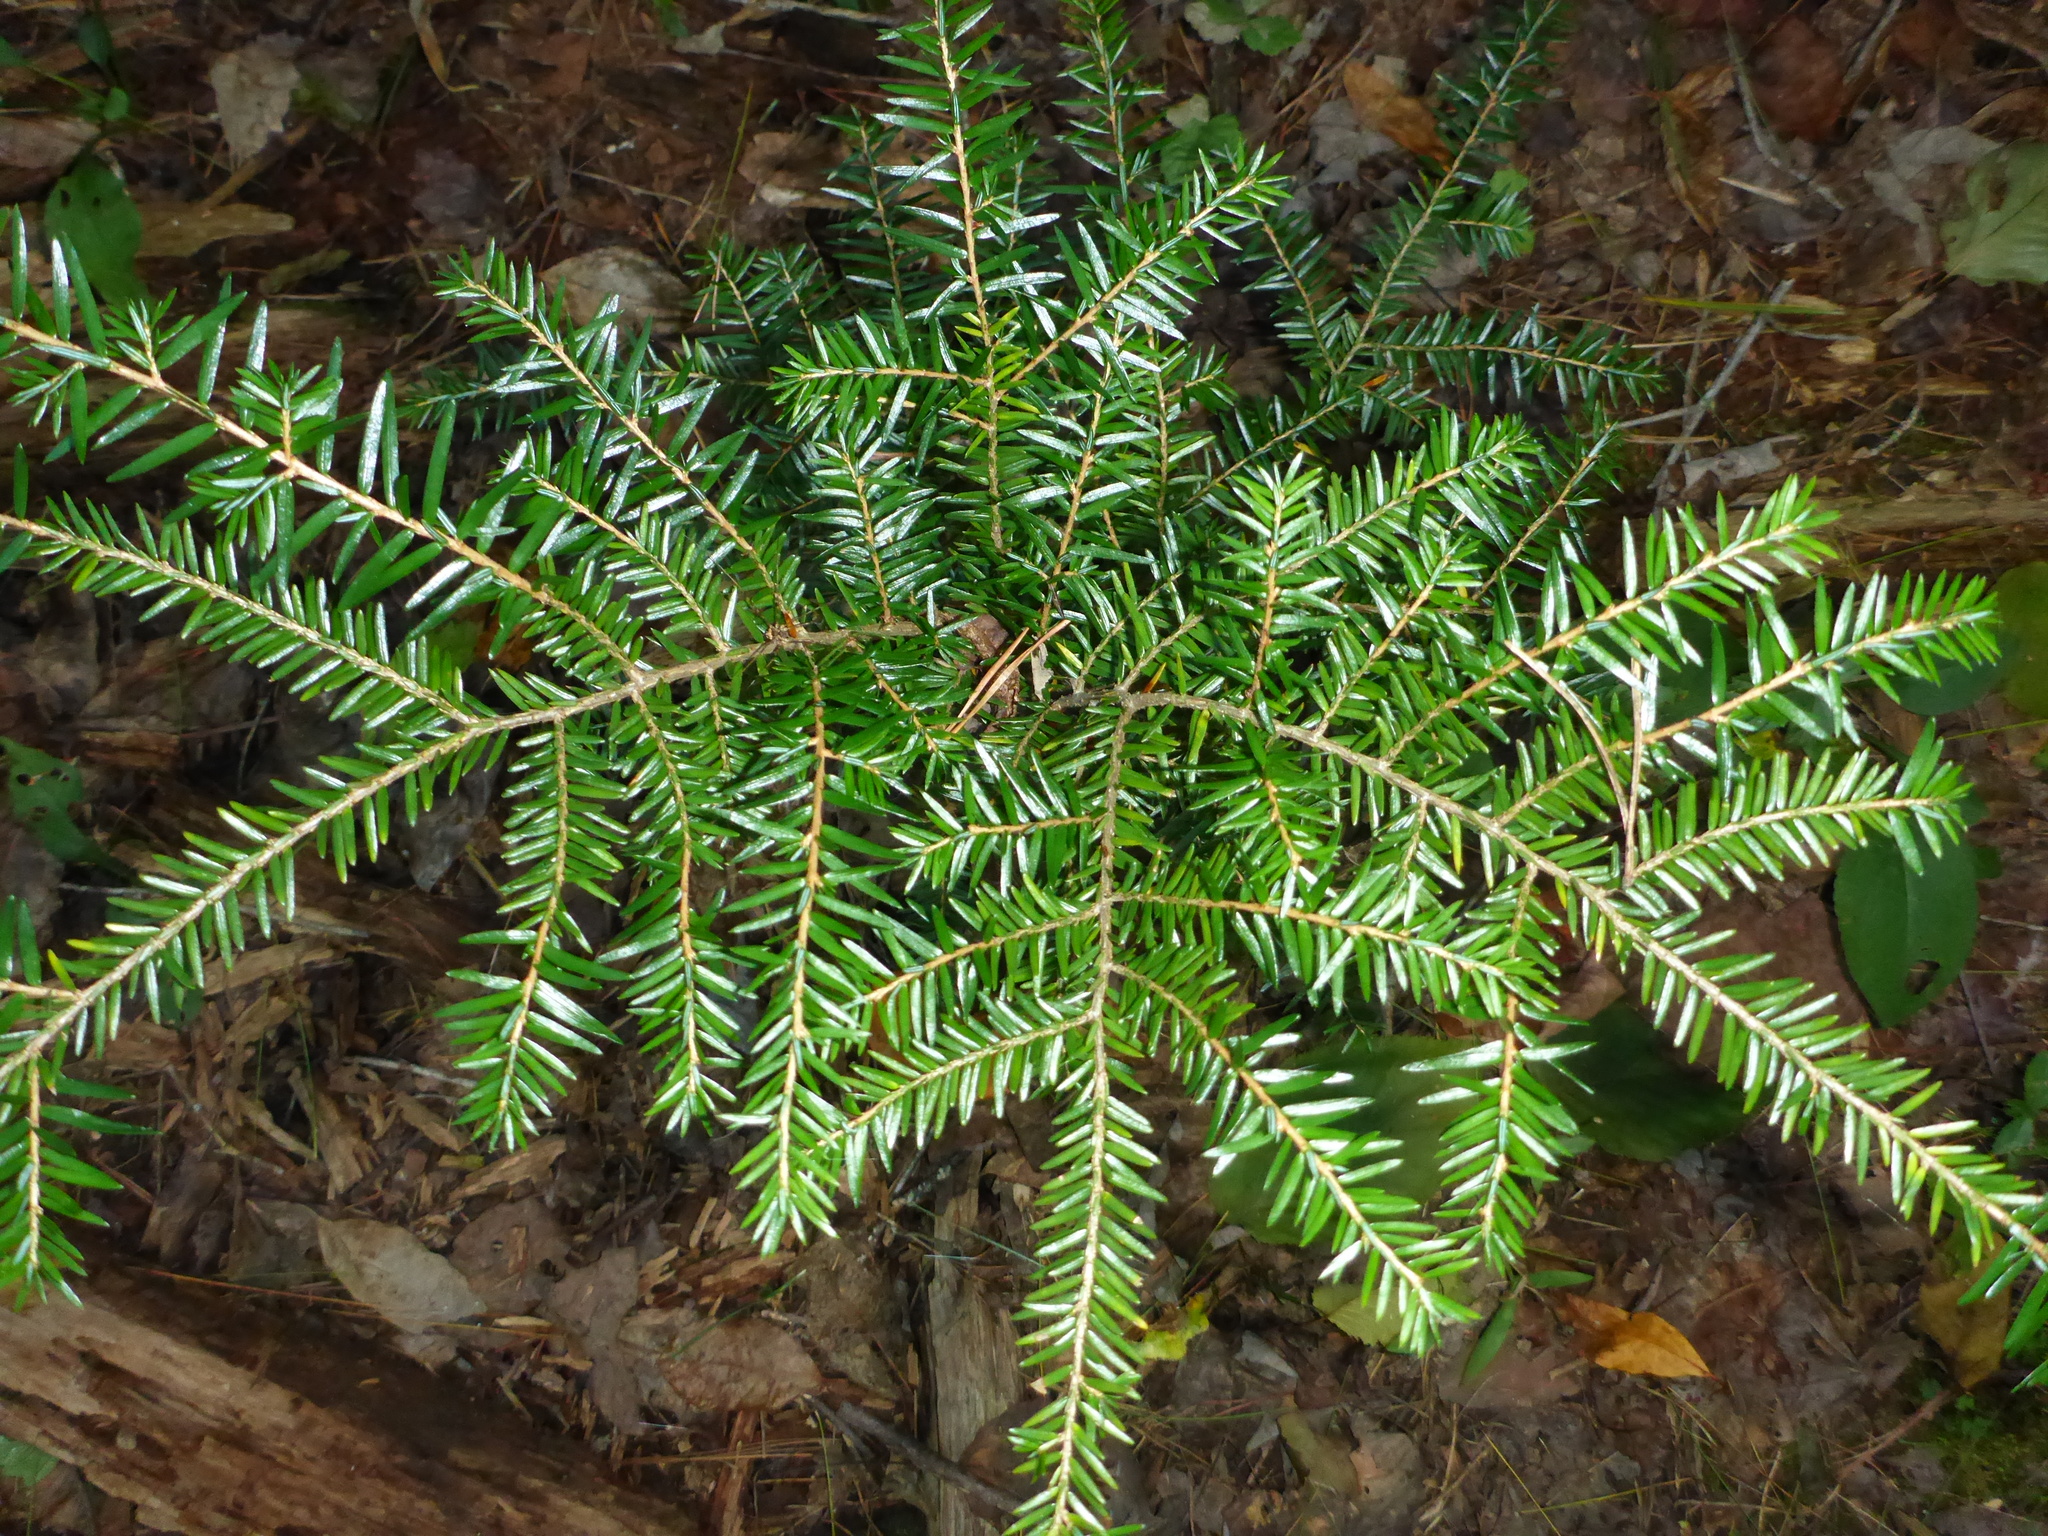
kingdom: Plantae
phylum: Tracheophyta
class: Pinopsida
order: Pinales
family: Pinaceae
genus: Tsuga
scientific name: Tsuga canadensis
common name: Eastern hemlock
